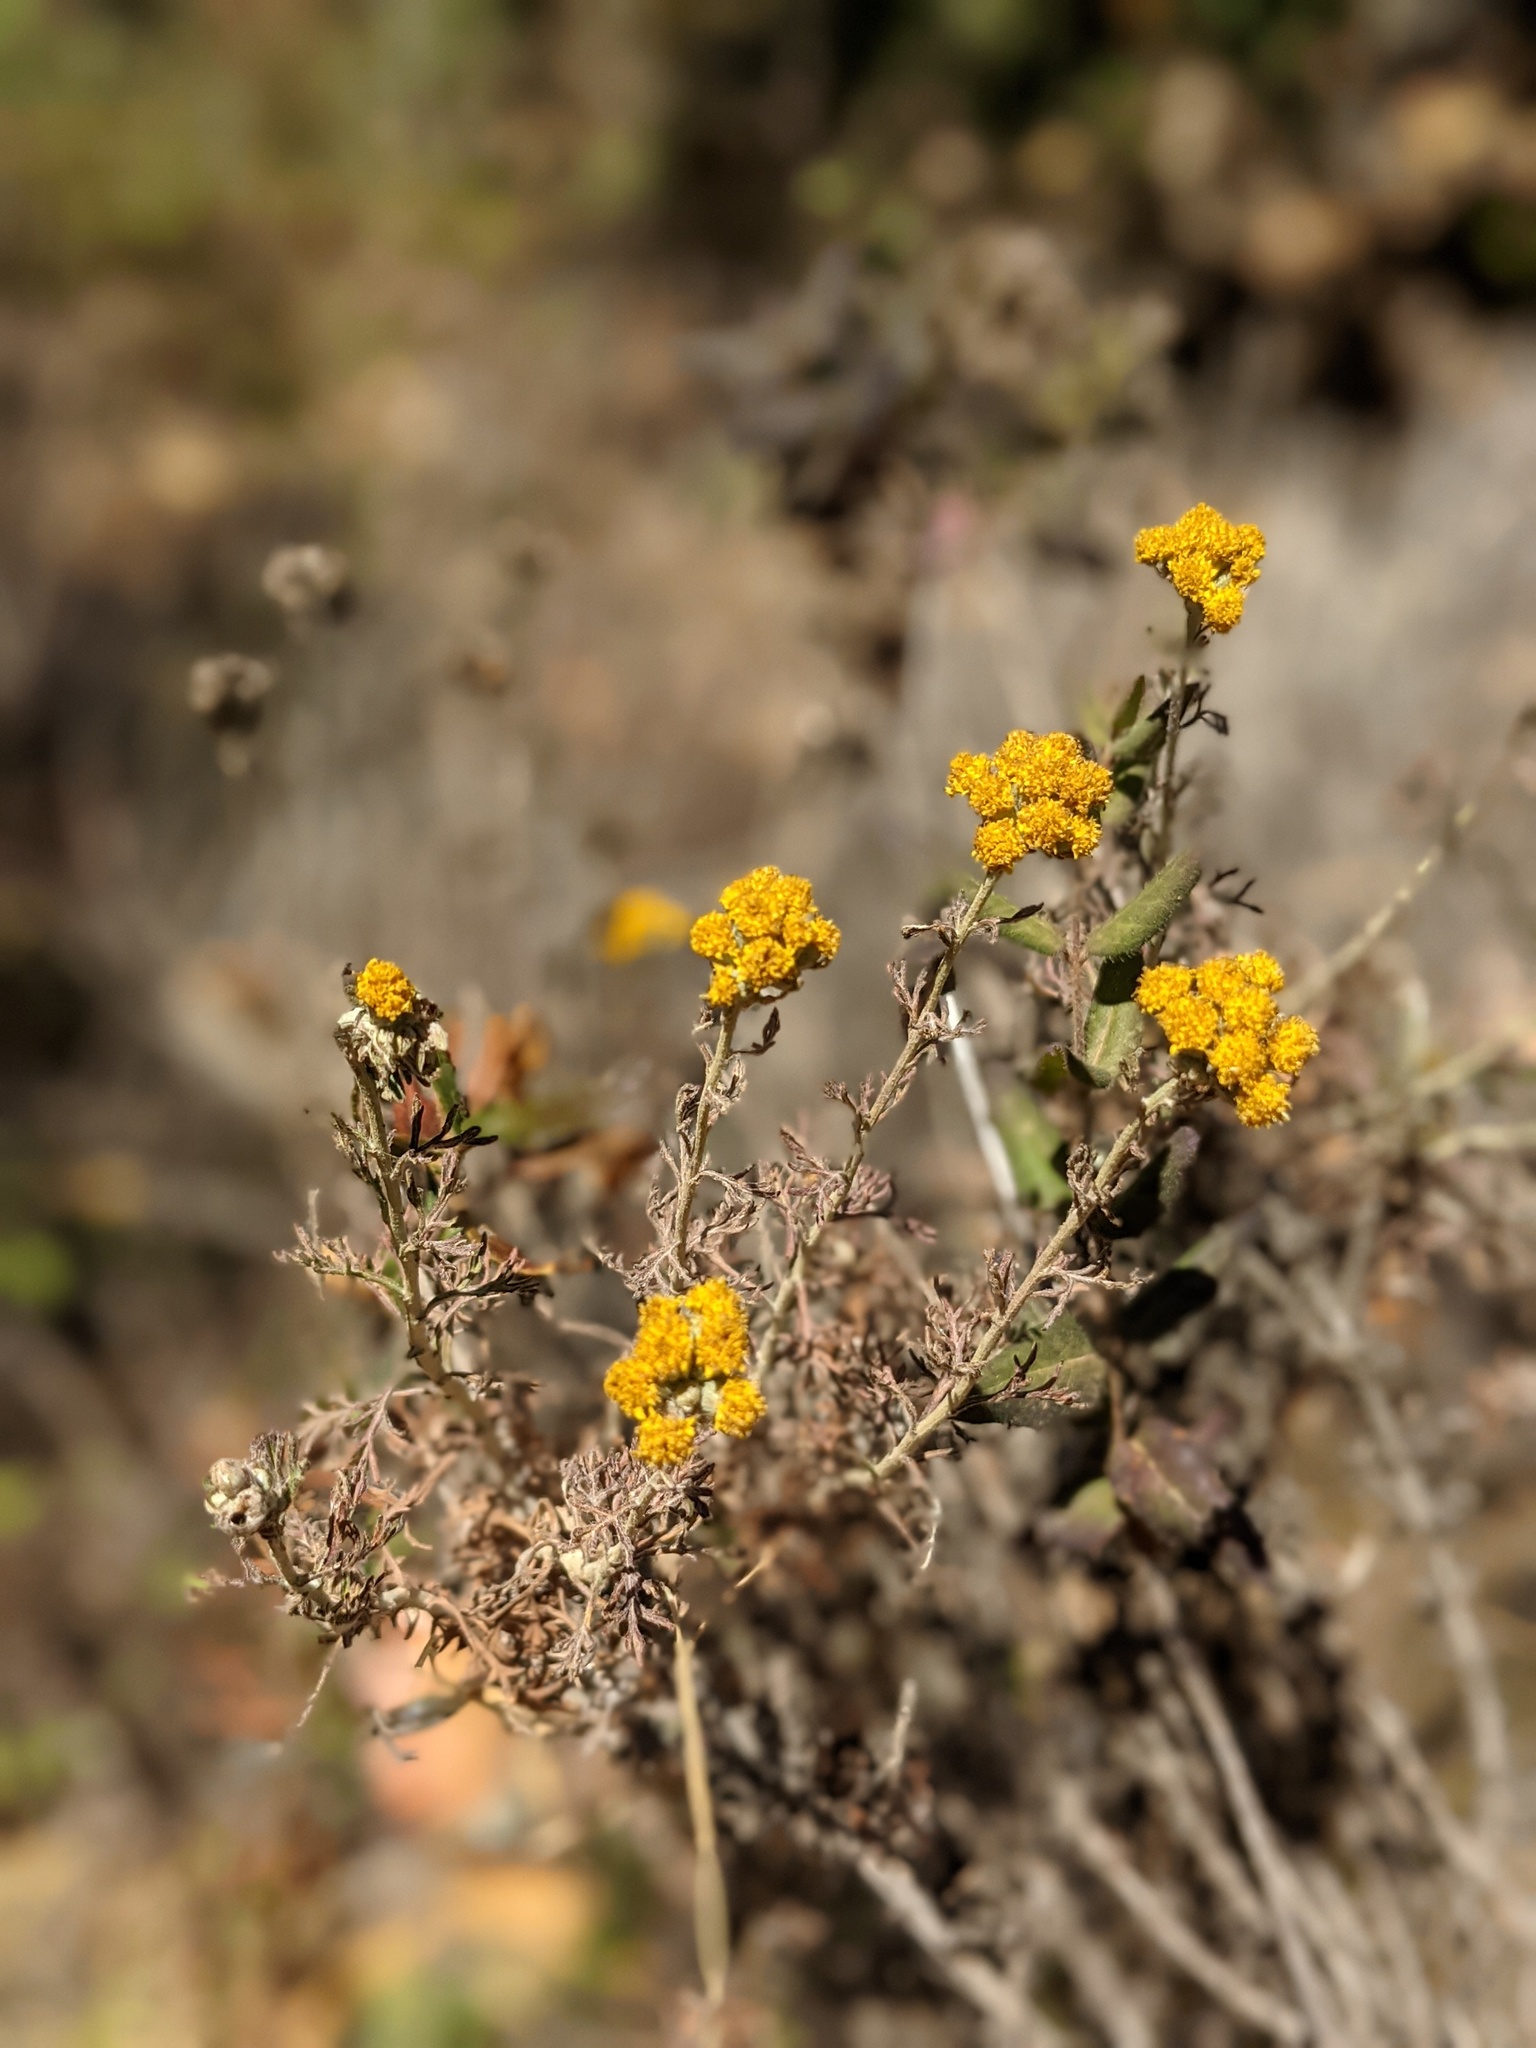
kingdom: Plantae
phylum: Tracheophyta
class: Magnoliopsida
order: Asterales
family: Asteraceae
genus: Eriophyllum
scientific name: Eriophyllum confertiflorum
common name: Golden-yarrow
